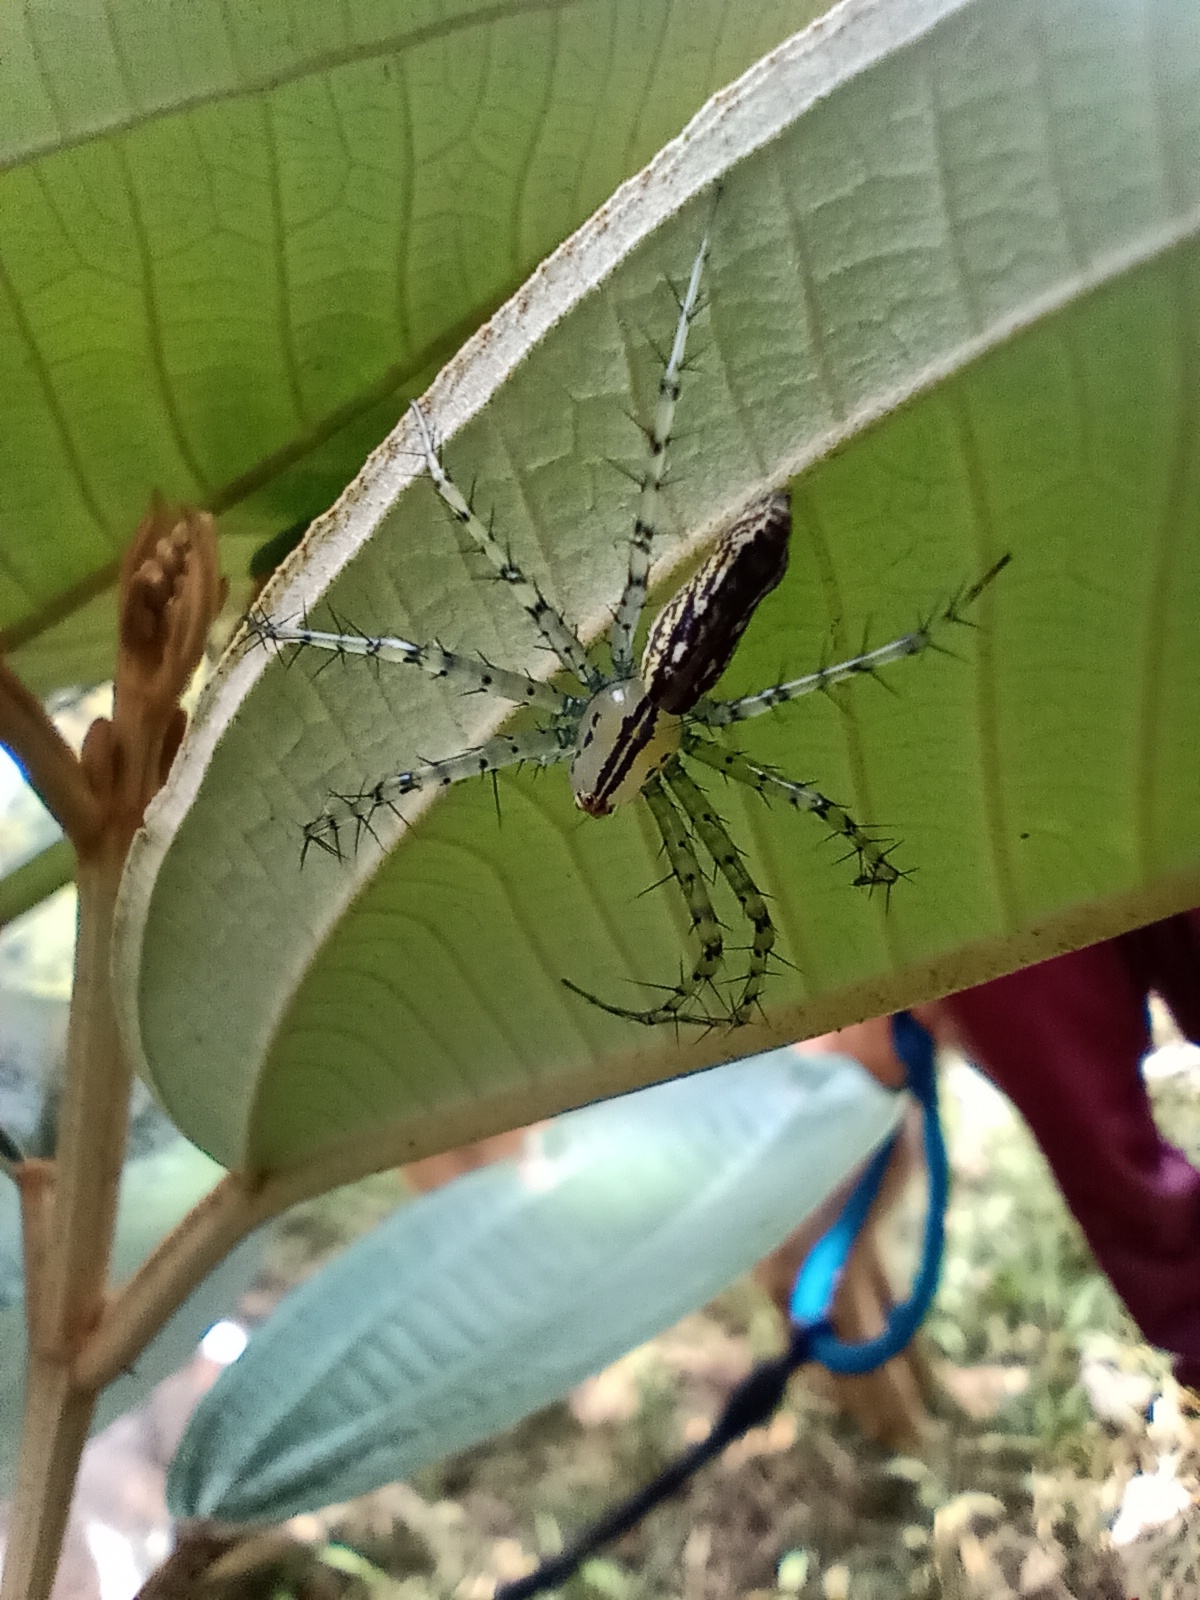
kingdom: Animalia
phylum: Arthropoda
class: Arachnida
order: Araneae
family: Oxyopidae
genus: Peucetia
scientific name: Peucetia rubrolineata
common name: Lynx spiders
